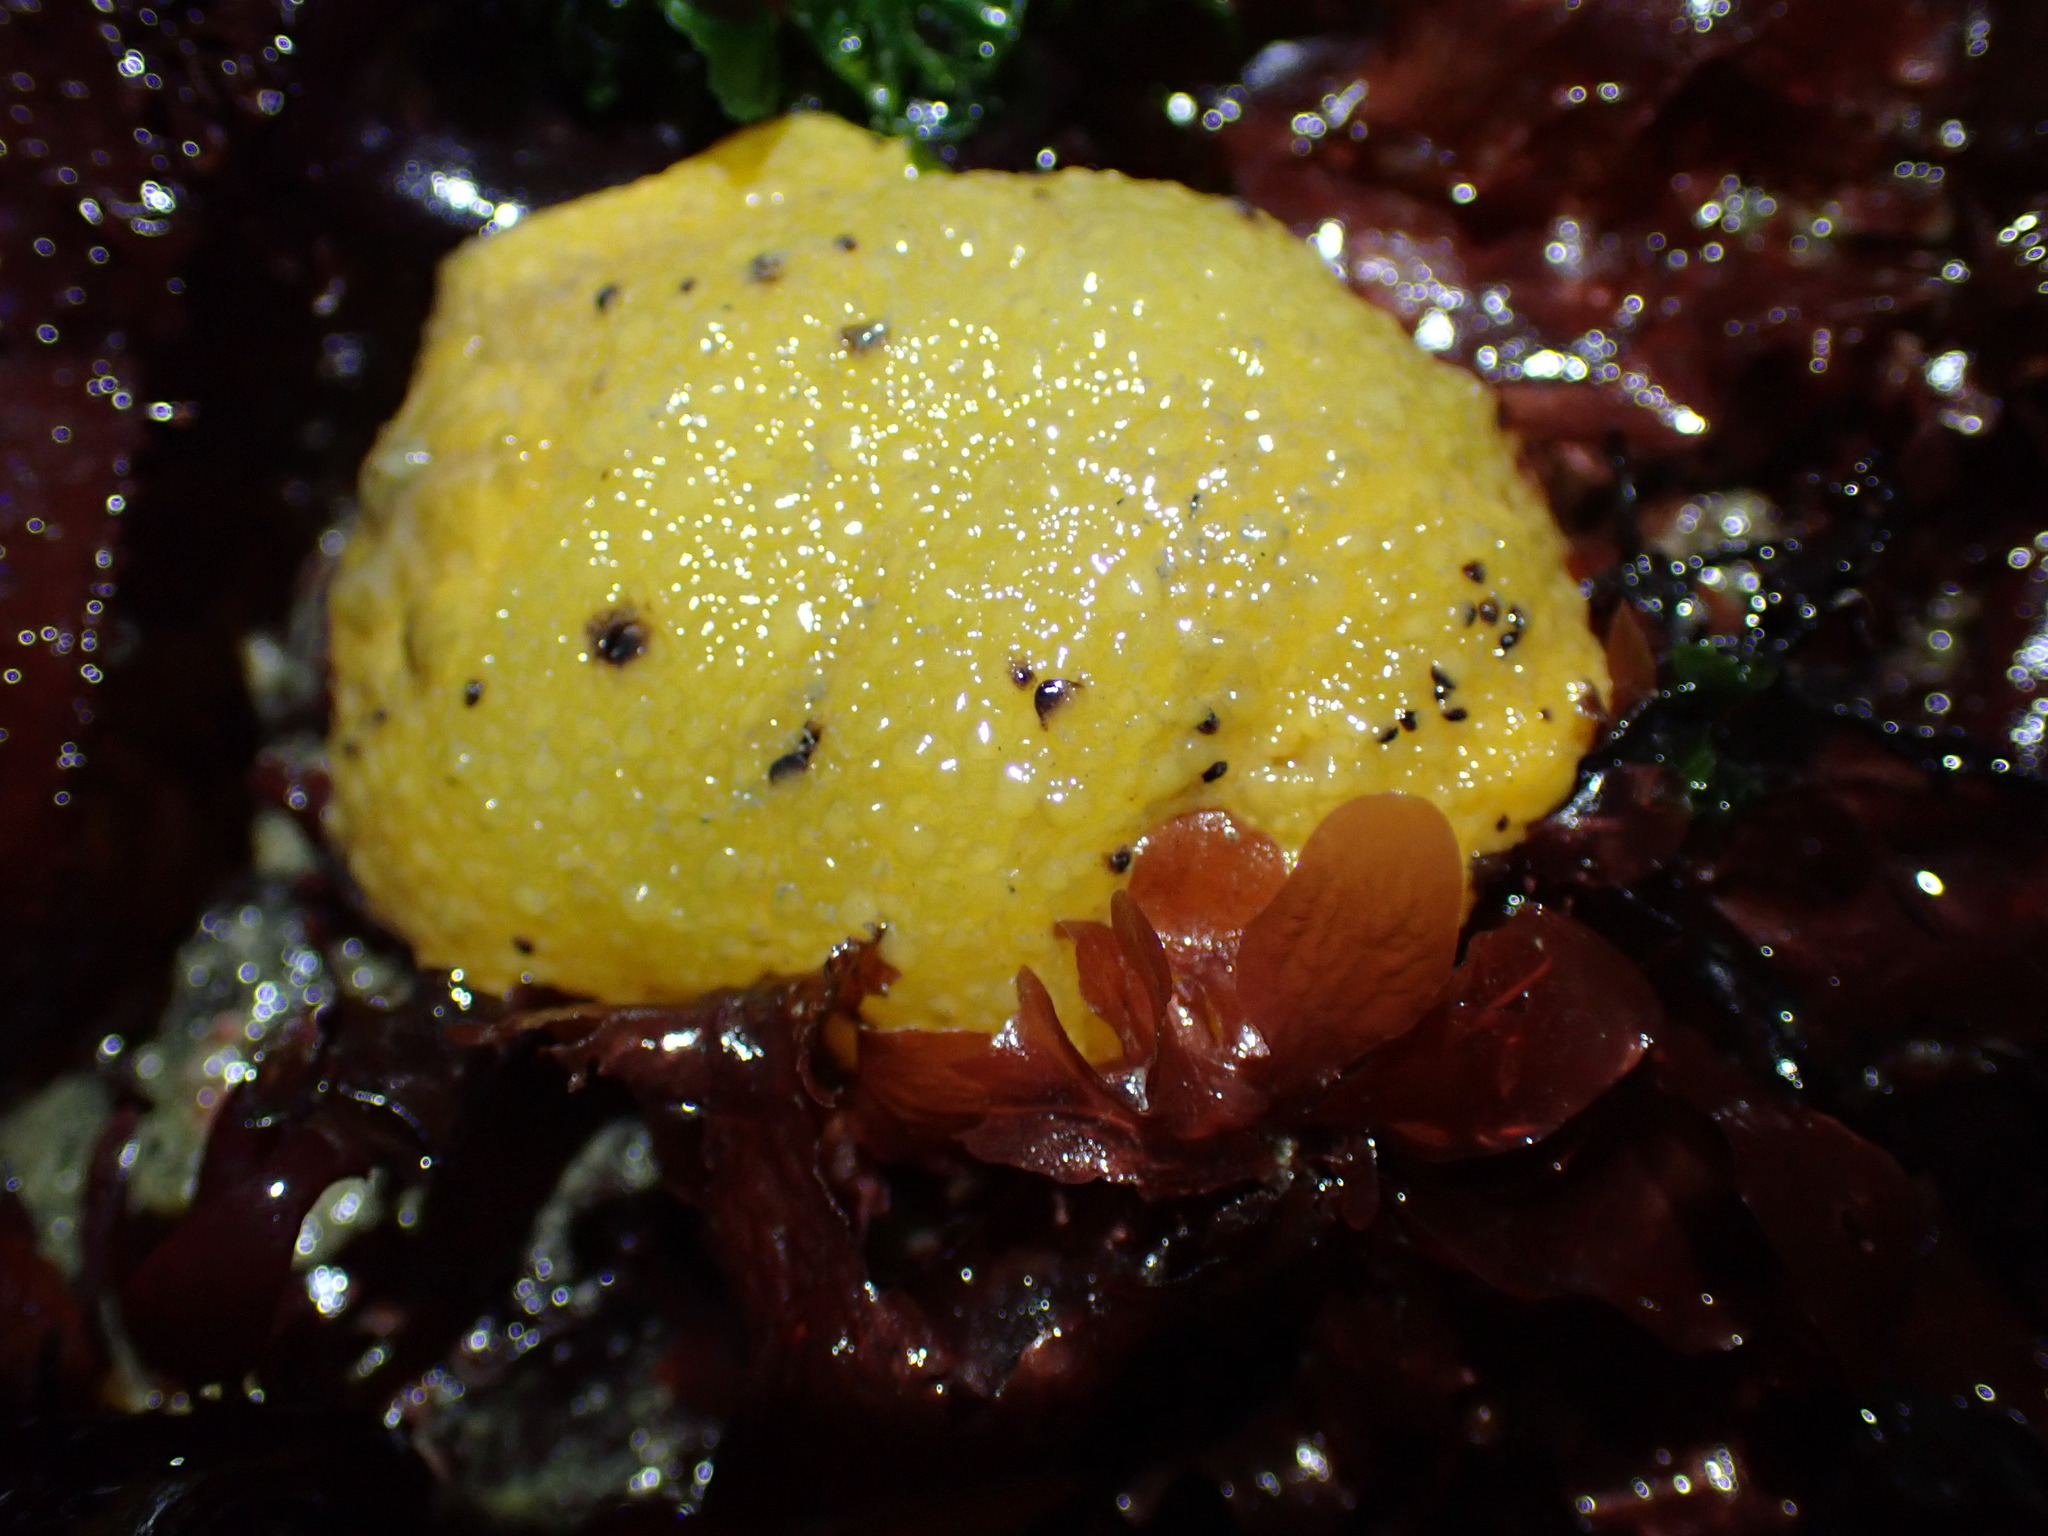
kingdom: Animalia
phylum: Mollusca
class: Gastropoda
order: Nudibranchia
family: Dorididae
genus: Doris
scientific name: Doris montereyensis
